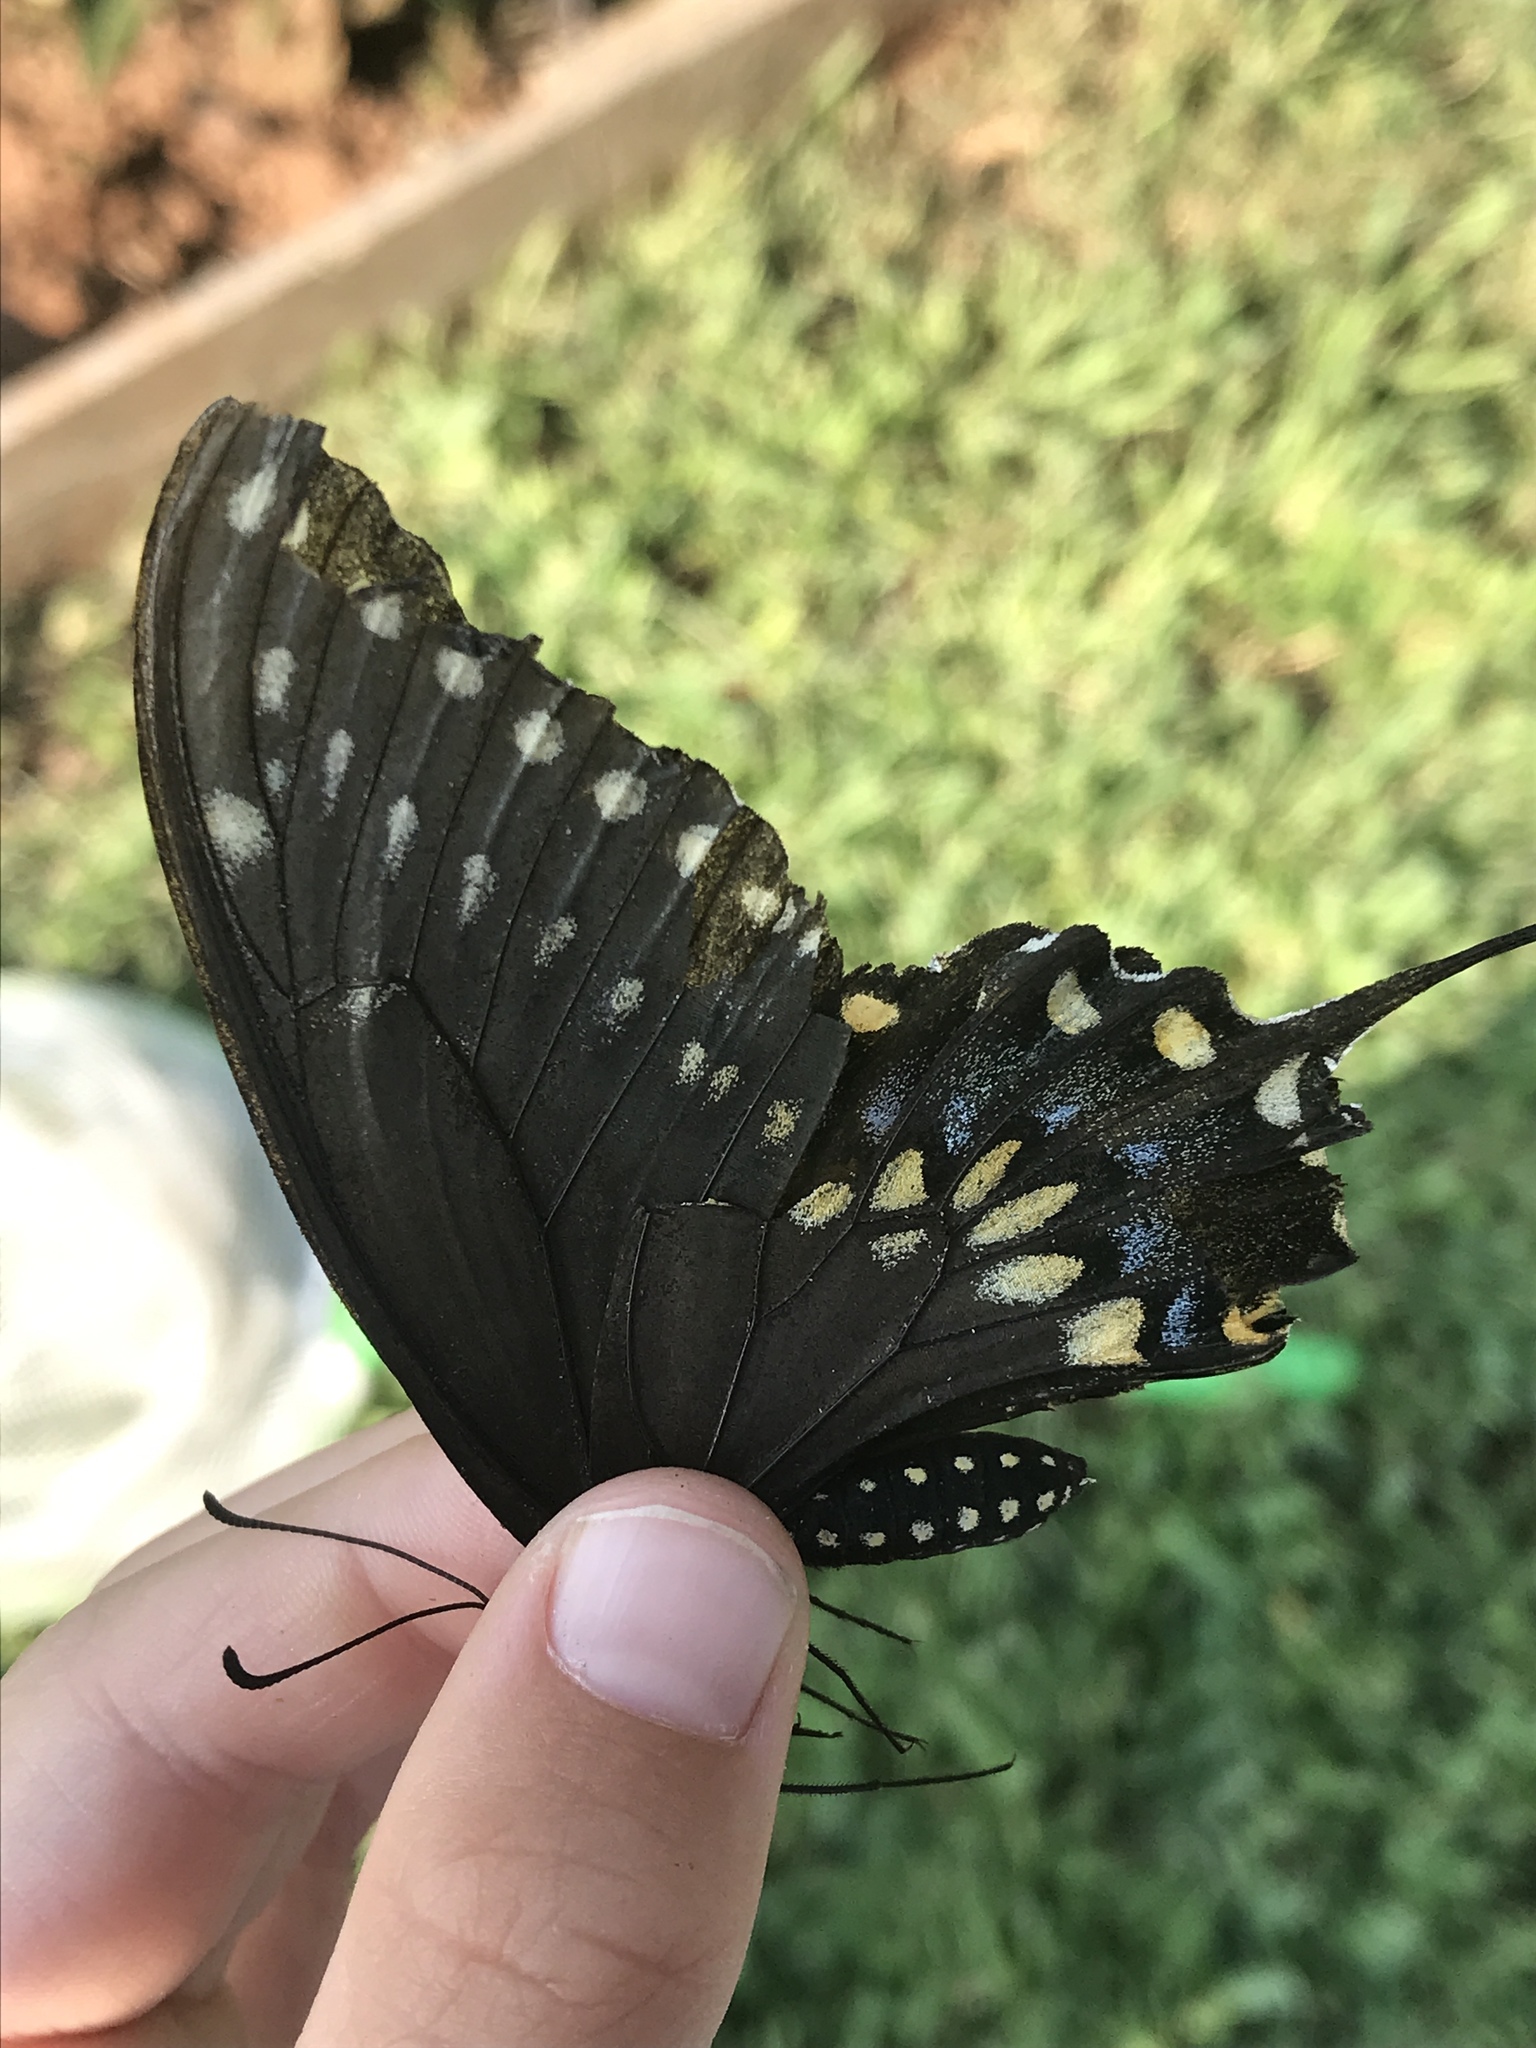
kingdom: Animalia
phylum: Arthropoda
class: Insecta
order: Lepidoptera
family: Papilionidae
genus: Papilio
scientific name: Papilio polyxenes
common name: Black swallowtail
